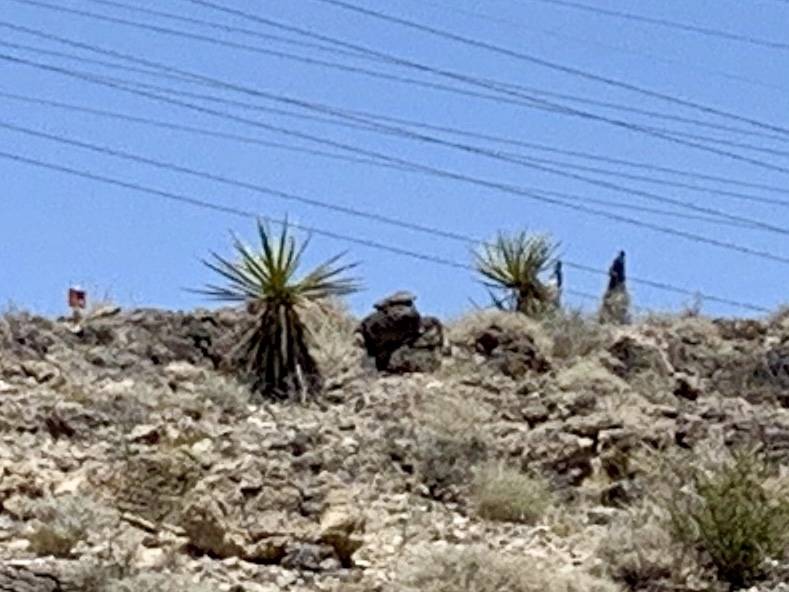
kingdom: Plantae
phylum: Tracheophyta
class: Liliopsida
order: Asparagales
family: Asparagaceae
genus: Yucca
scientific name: Yucca schidigera
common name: Mojave yucca
